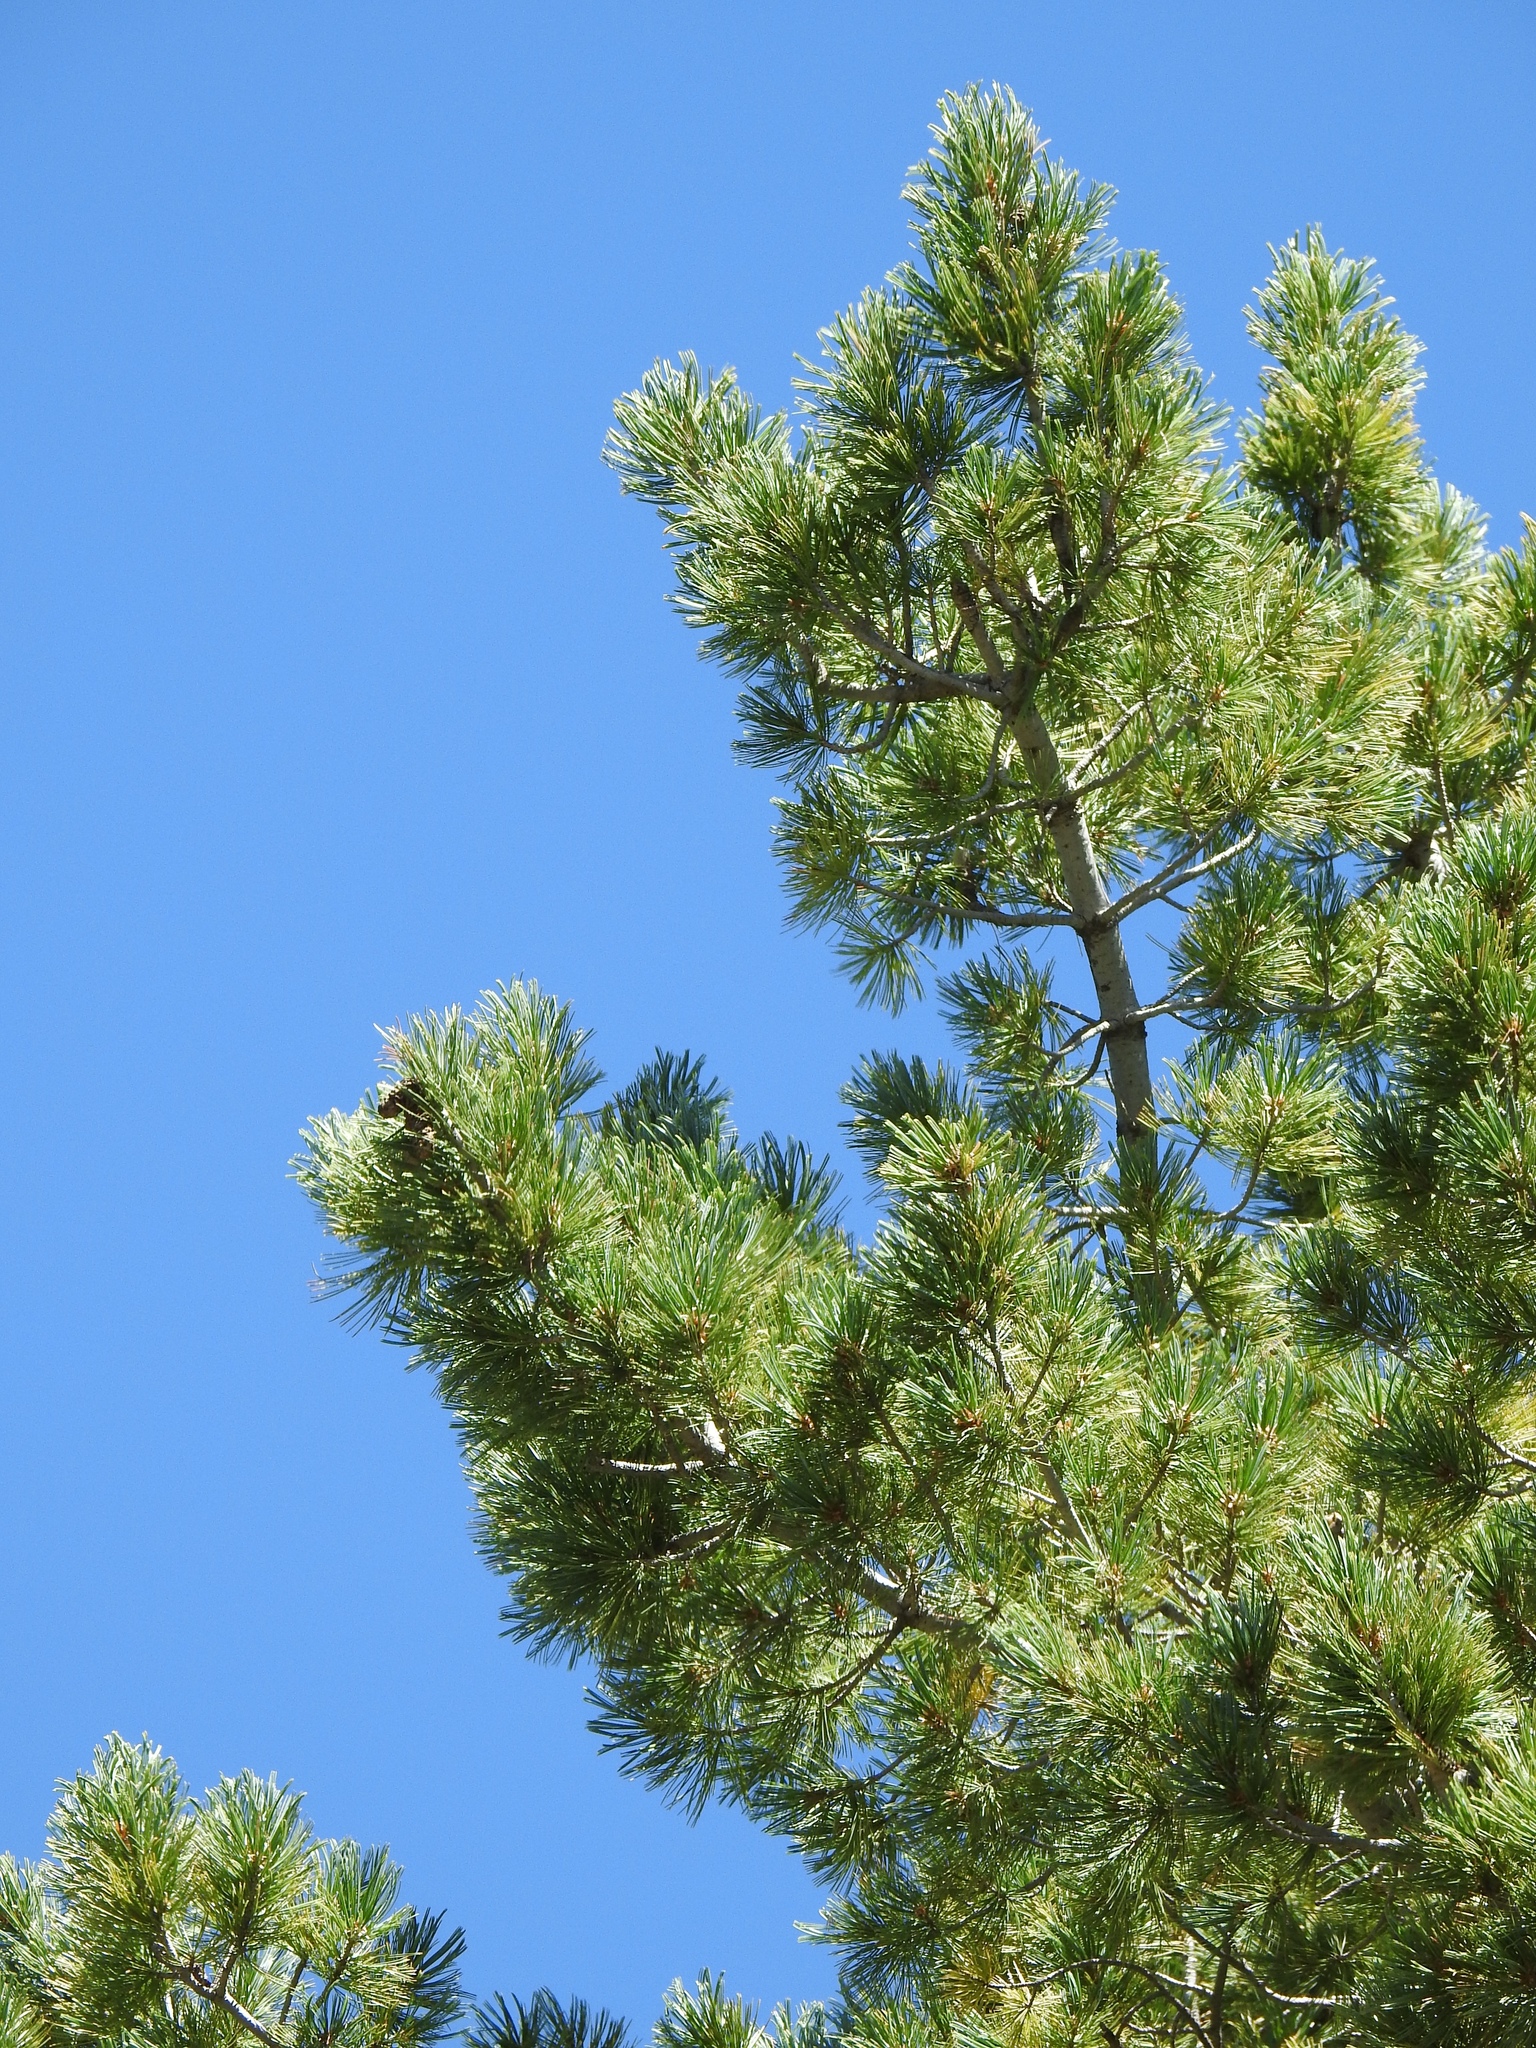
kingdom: Plantae
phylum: Tracheophyta
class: Pinopsida
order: Pinales
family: Pinaceae
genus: Pinus
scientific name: Pinus strobiformis
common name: Southwestern white pine
